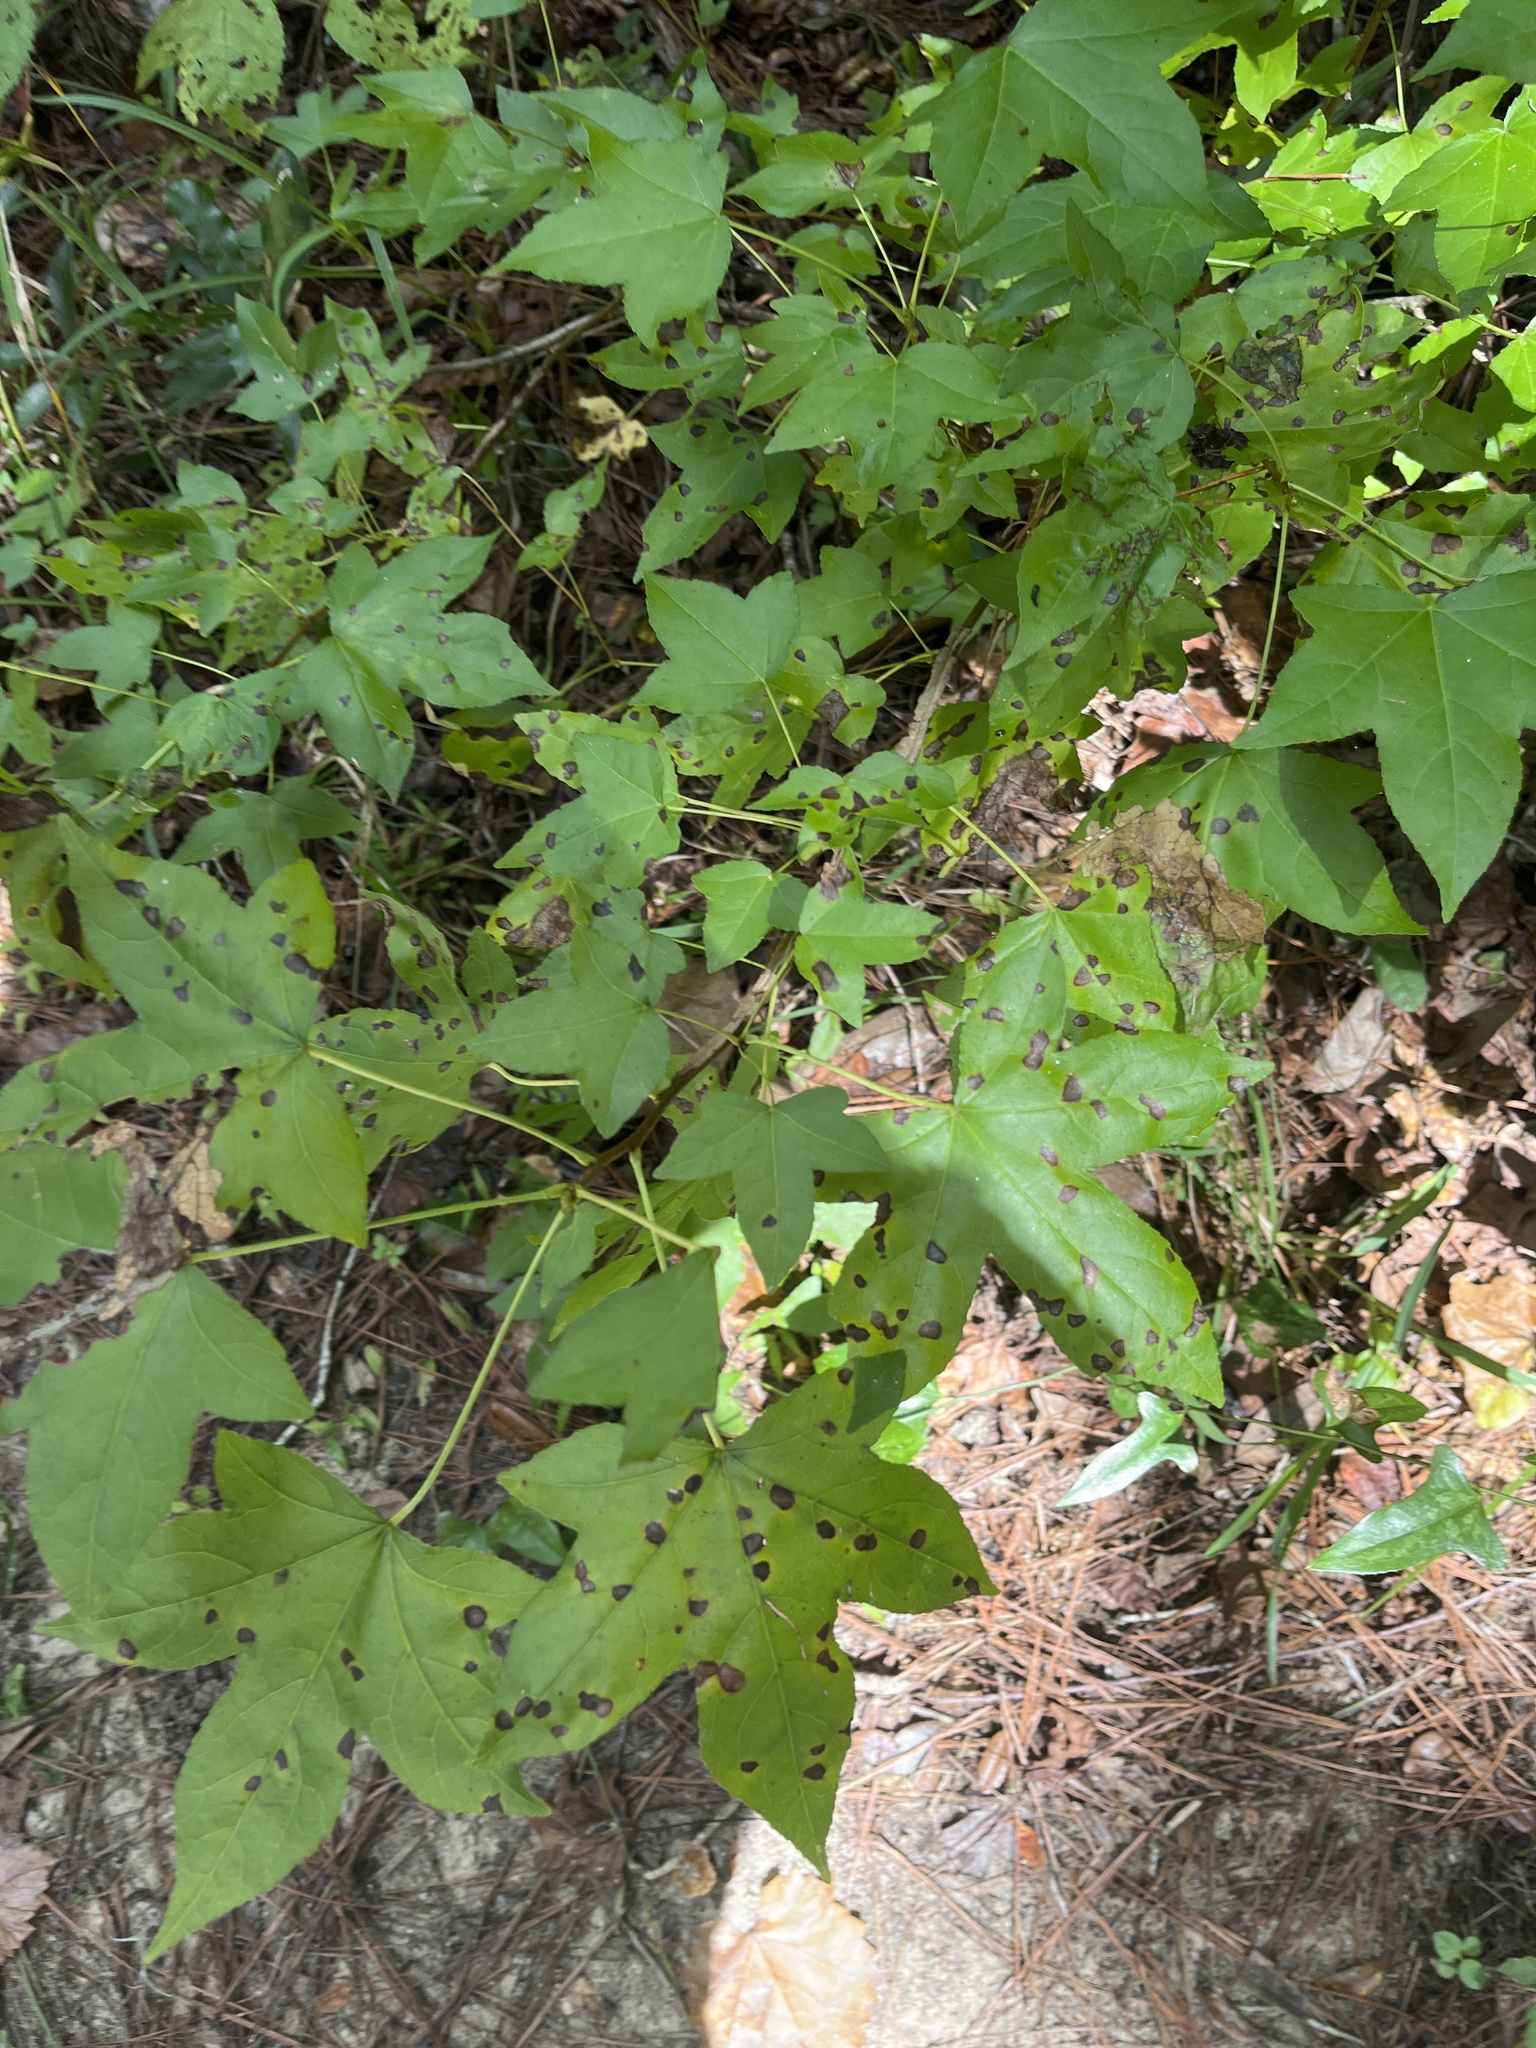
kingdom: Plantae
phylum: Tracheophyta
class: Magnoliopsida
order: Saxifragales
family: Altingiaceae
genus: Liquidambar
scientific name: Liquidambar styraciflua
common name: Sweet gum
